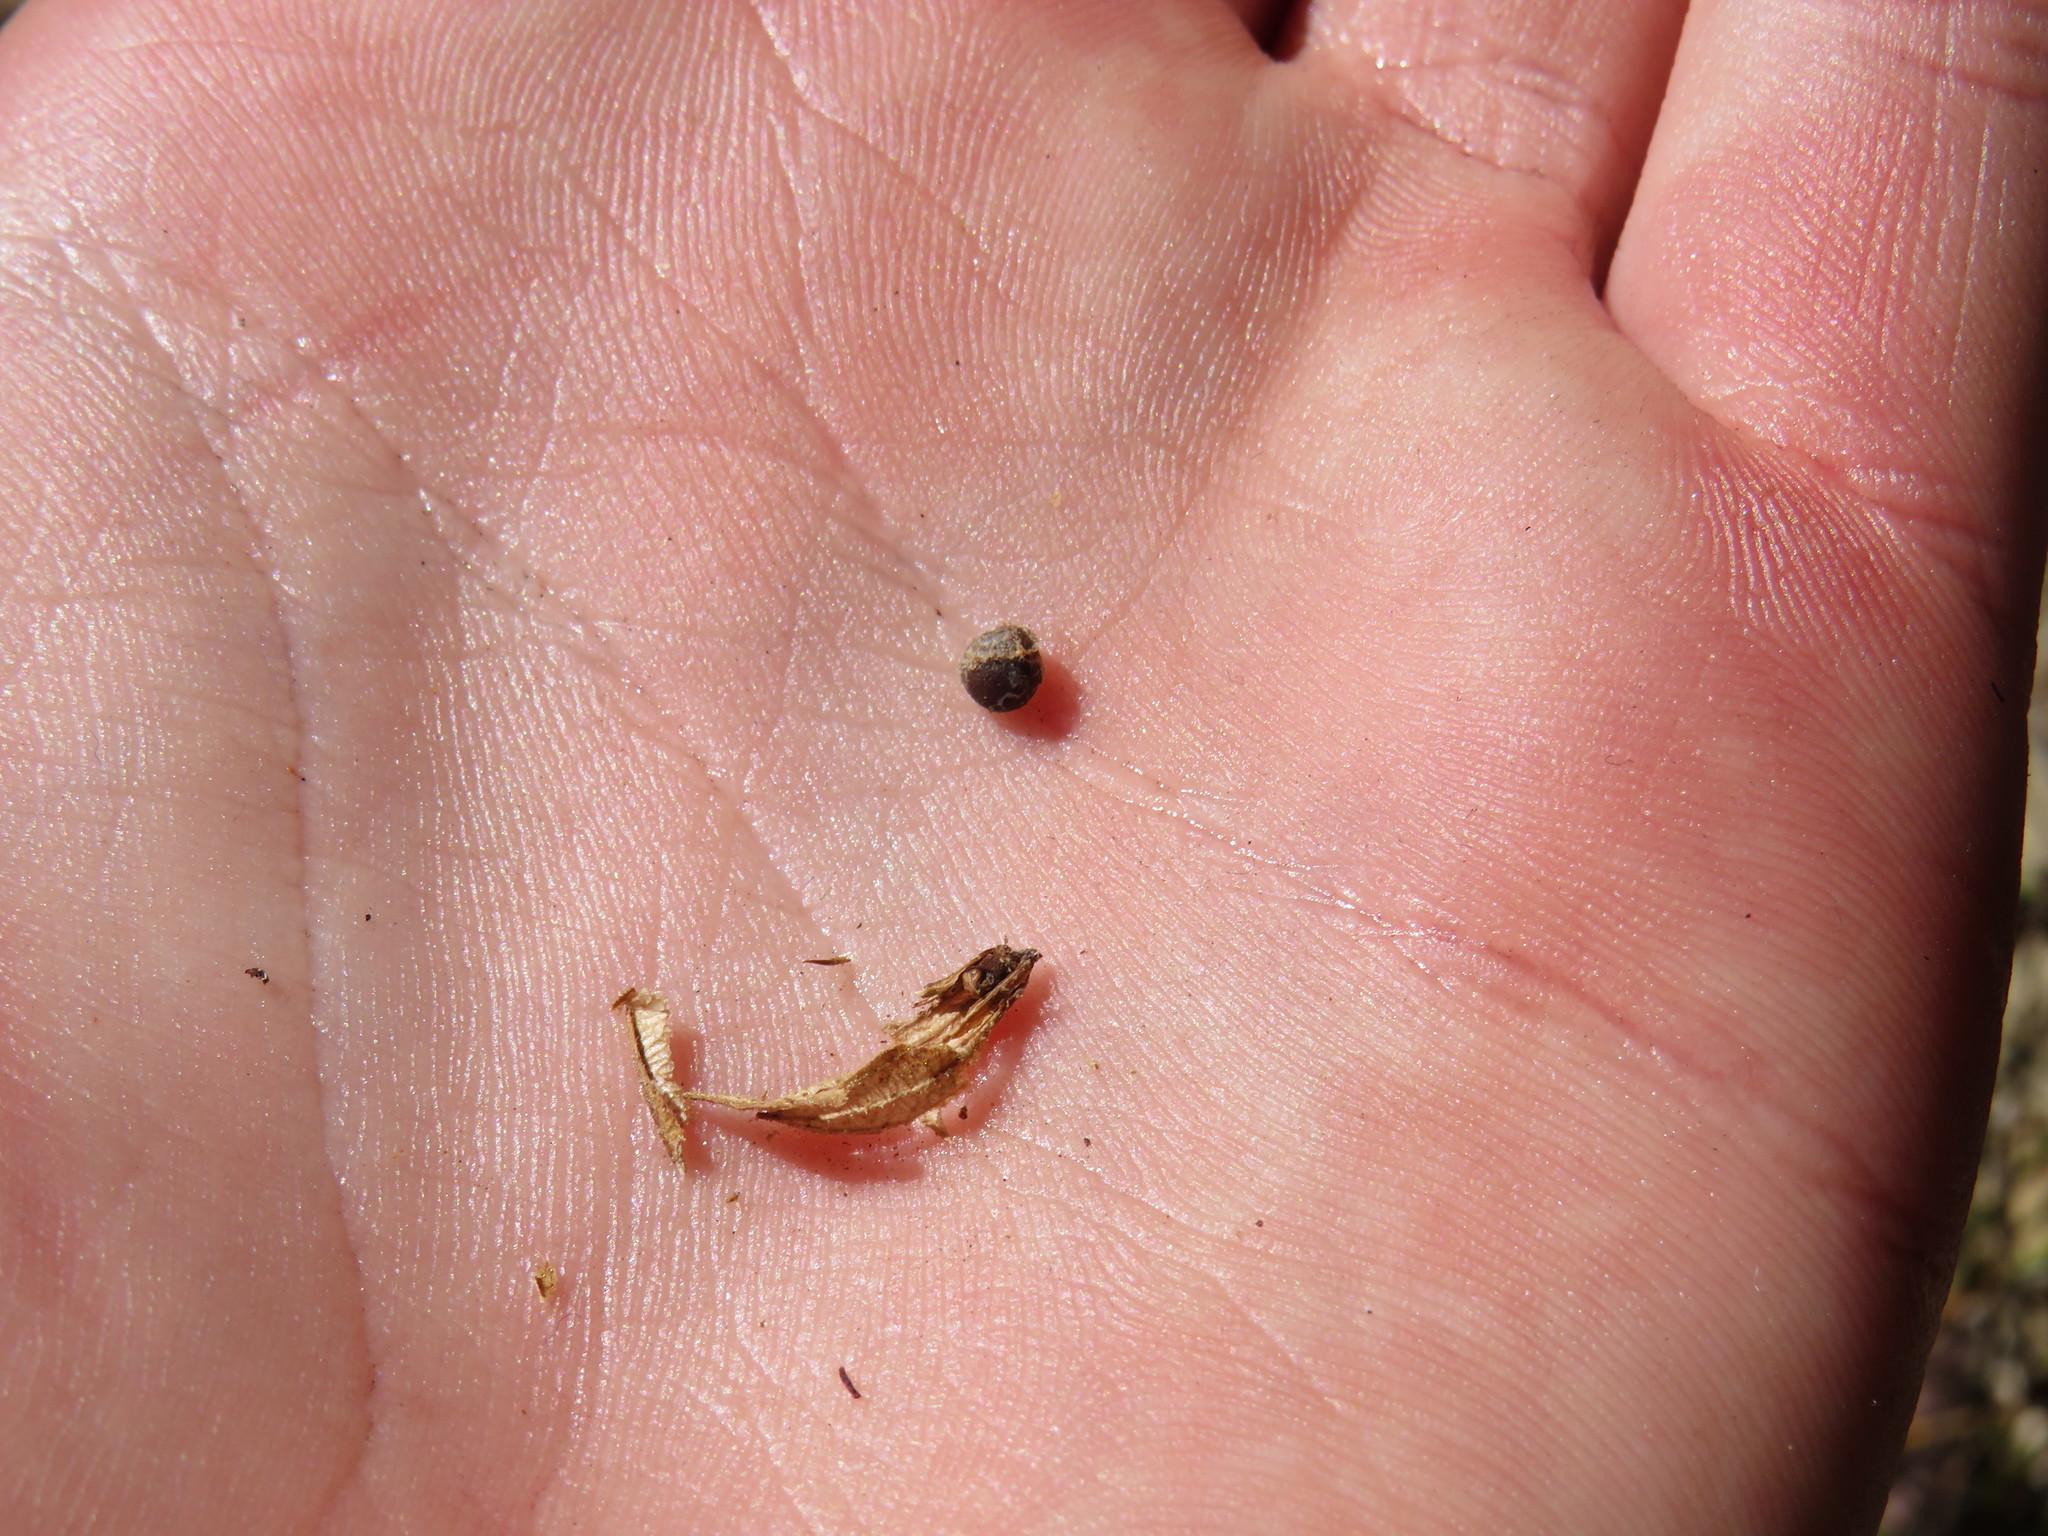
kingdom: Plantae
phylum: Tracheophyta
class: Magnoliopsida
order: Lamiales
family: Lamiaceae
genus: Salvia
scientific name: Salvia granitica
